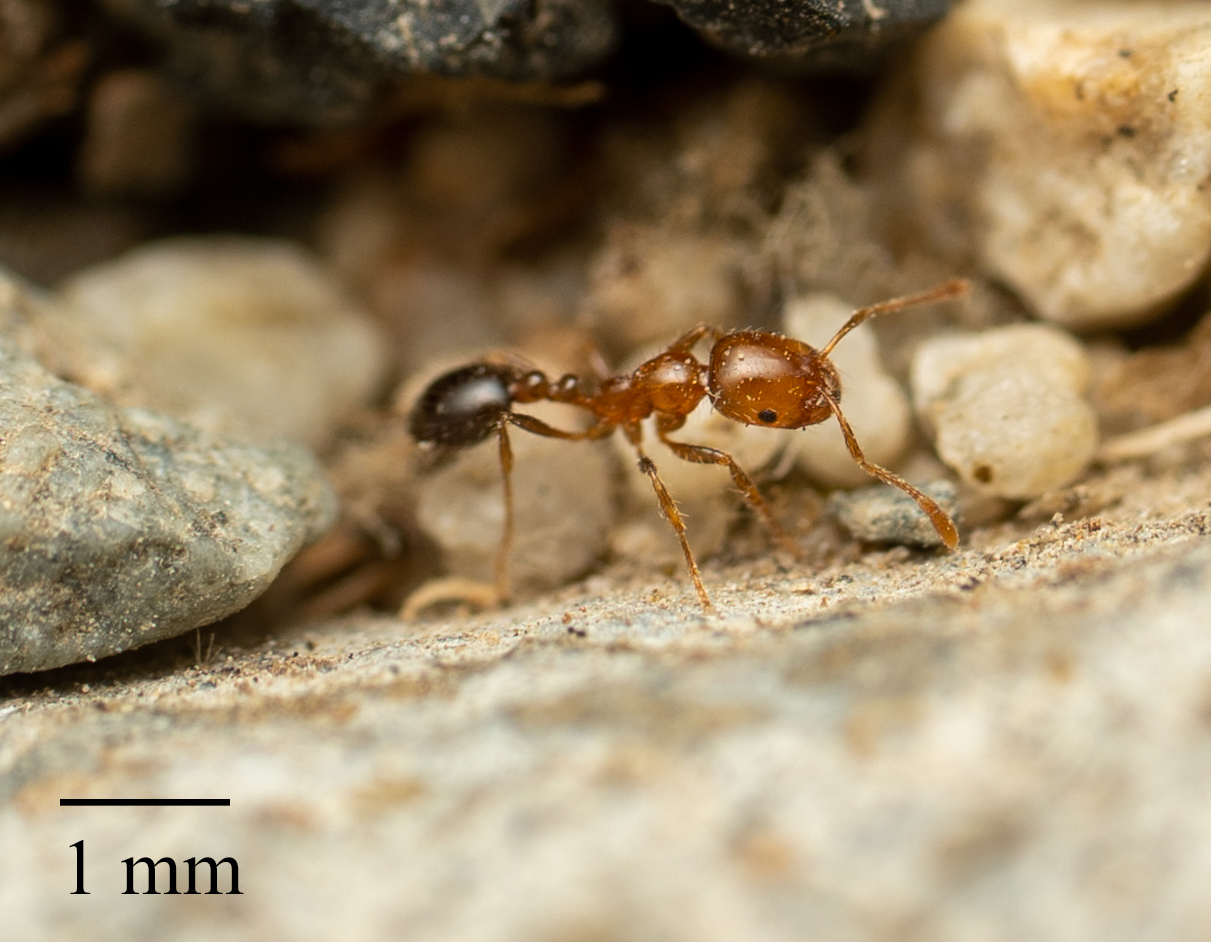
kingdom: Animalia
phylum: Arthropoda
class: Insecta
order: Hymenoptera
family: Formicidae
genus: Solenopsis
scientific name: Solenopsis xyloni
